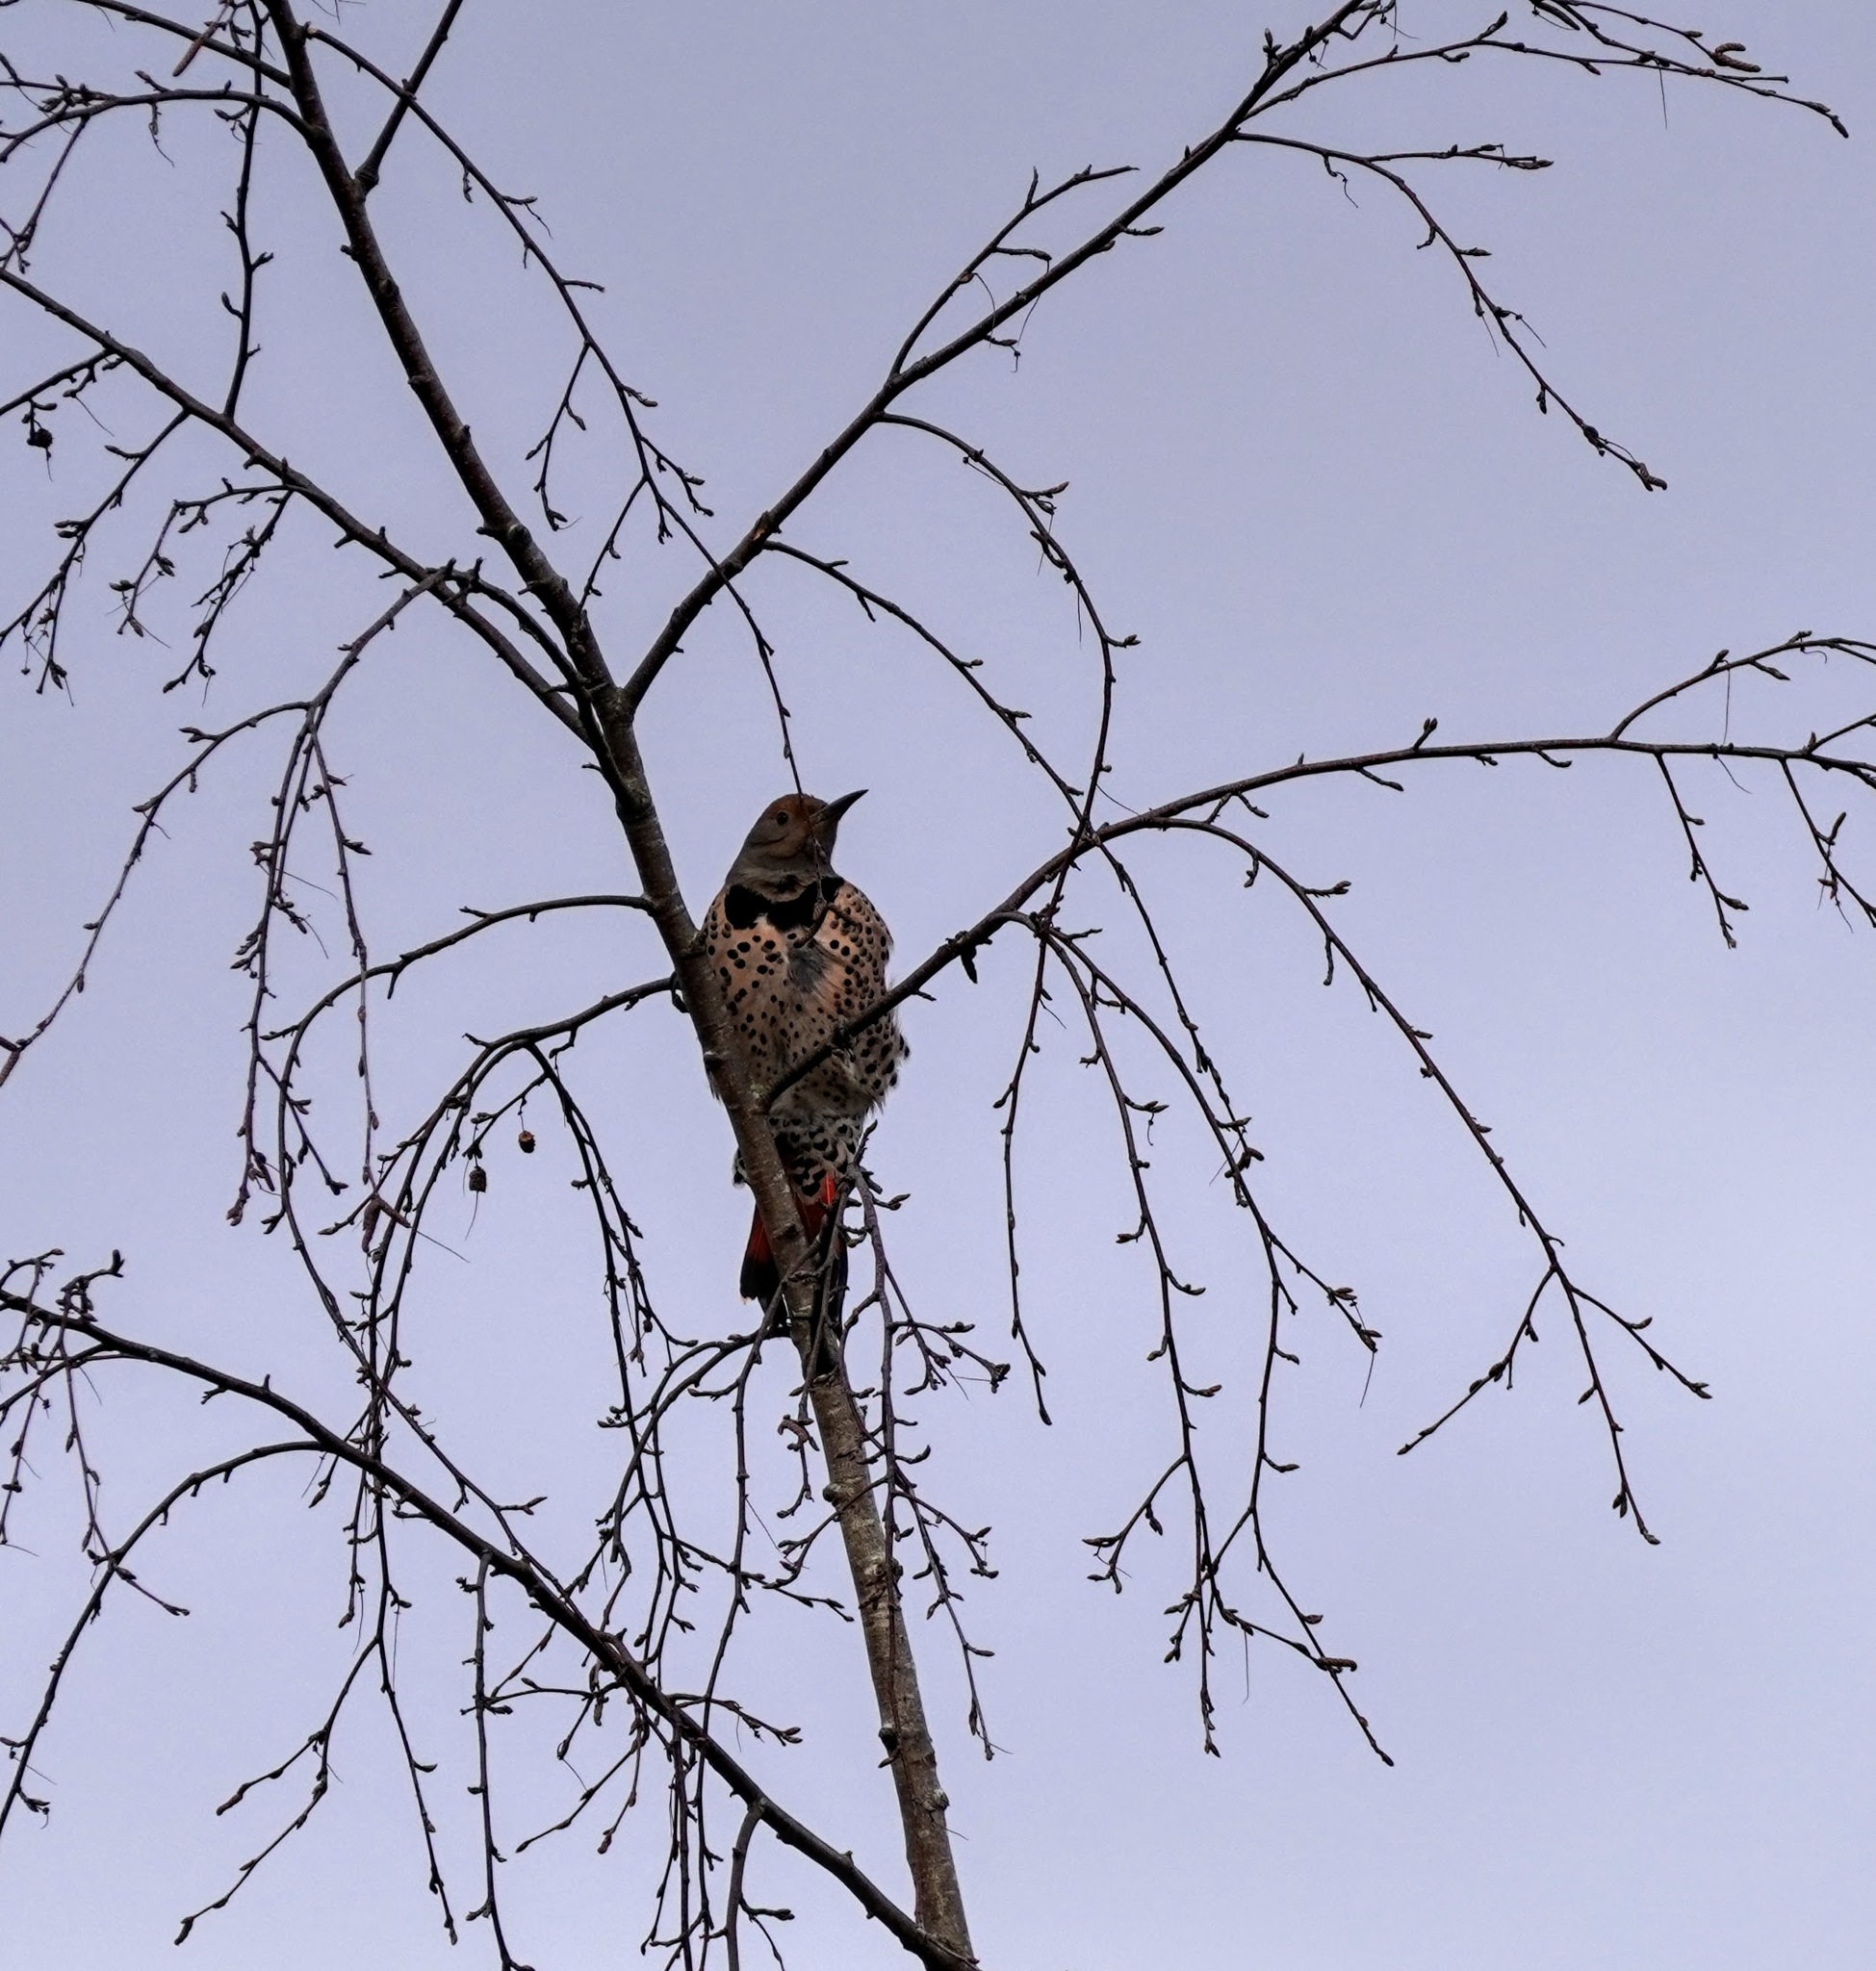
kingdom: Animalia
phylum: Chordata
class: Aves
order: Piciformes
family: Picidae
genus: Colaptes
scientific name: Colaptes auratus
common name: Northern flicker
